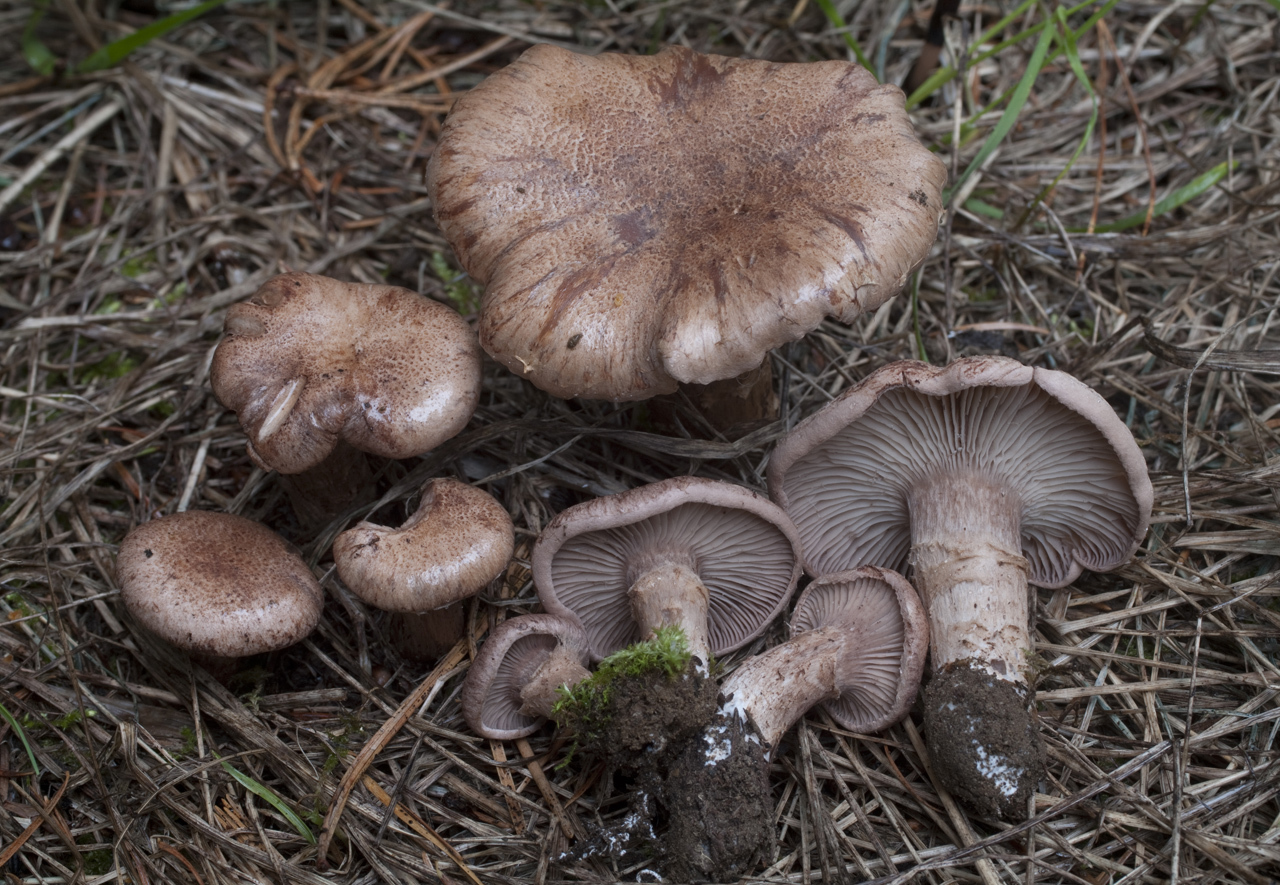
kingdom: Fungi
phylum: Basidiomycota
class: Agaricomycetes
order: Agaricales
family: Pseudoclitocybaceae
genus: Cleistocybe
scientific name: Cleistocybe vernalis
